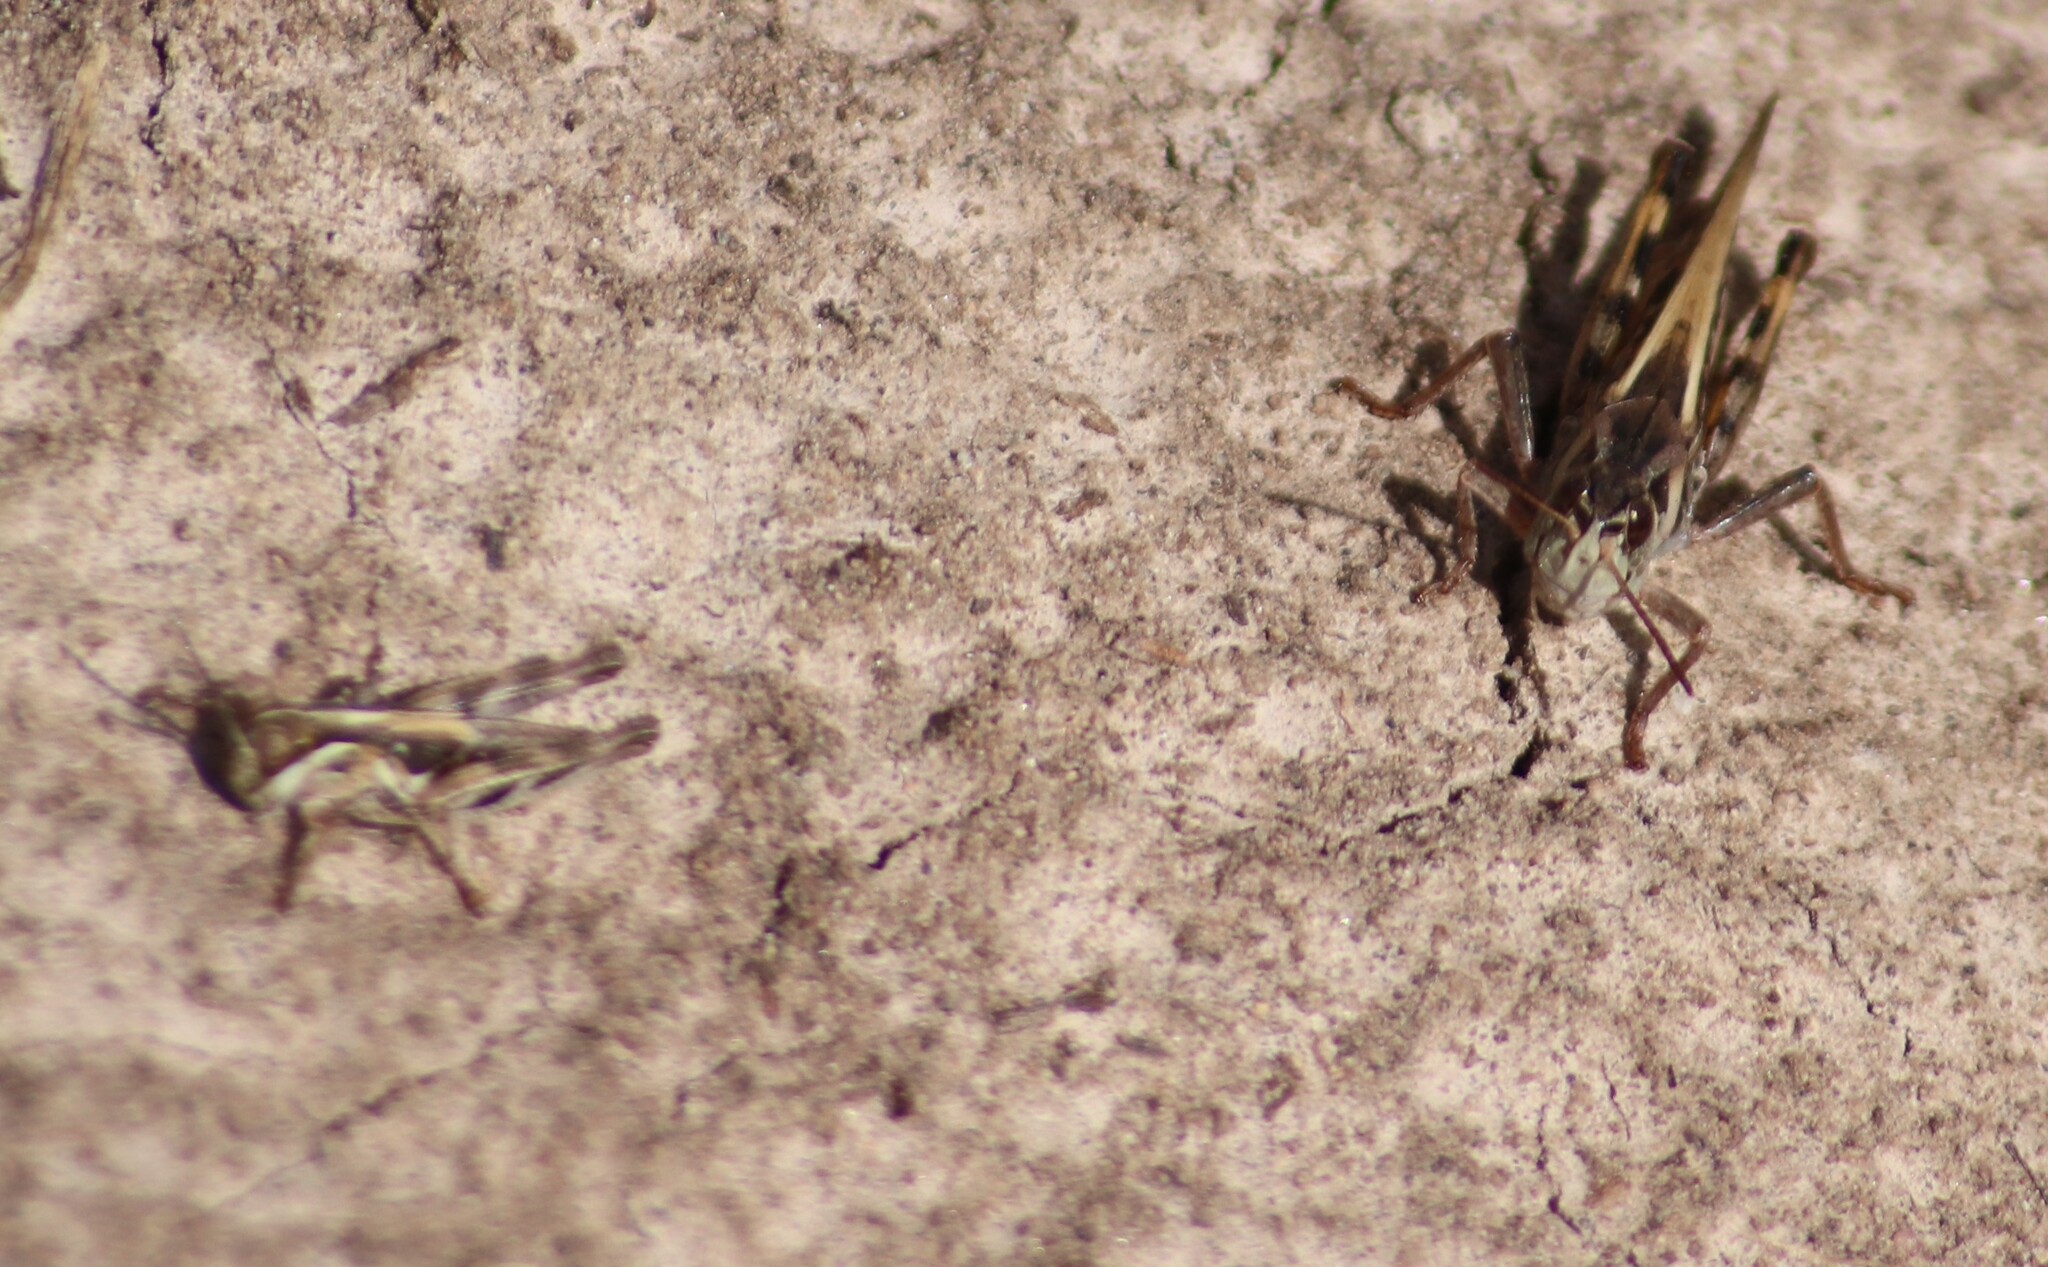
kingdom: Animalia
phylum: Arthropoda
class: Insecta
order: Orthoptera
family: Acrididae
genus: Camnula
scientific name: Camnula pellucida
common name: Clear-winged grasshopper
